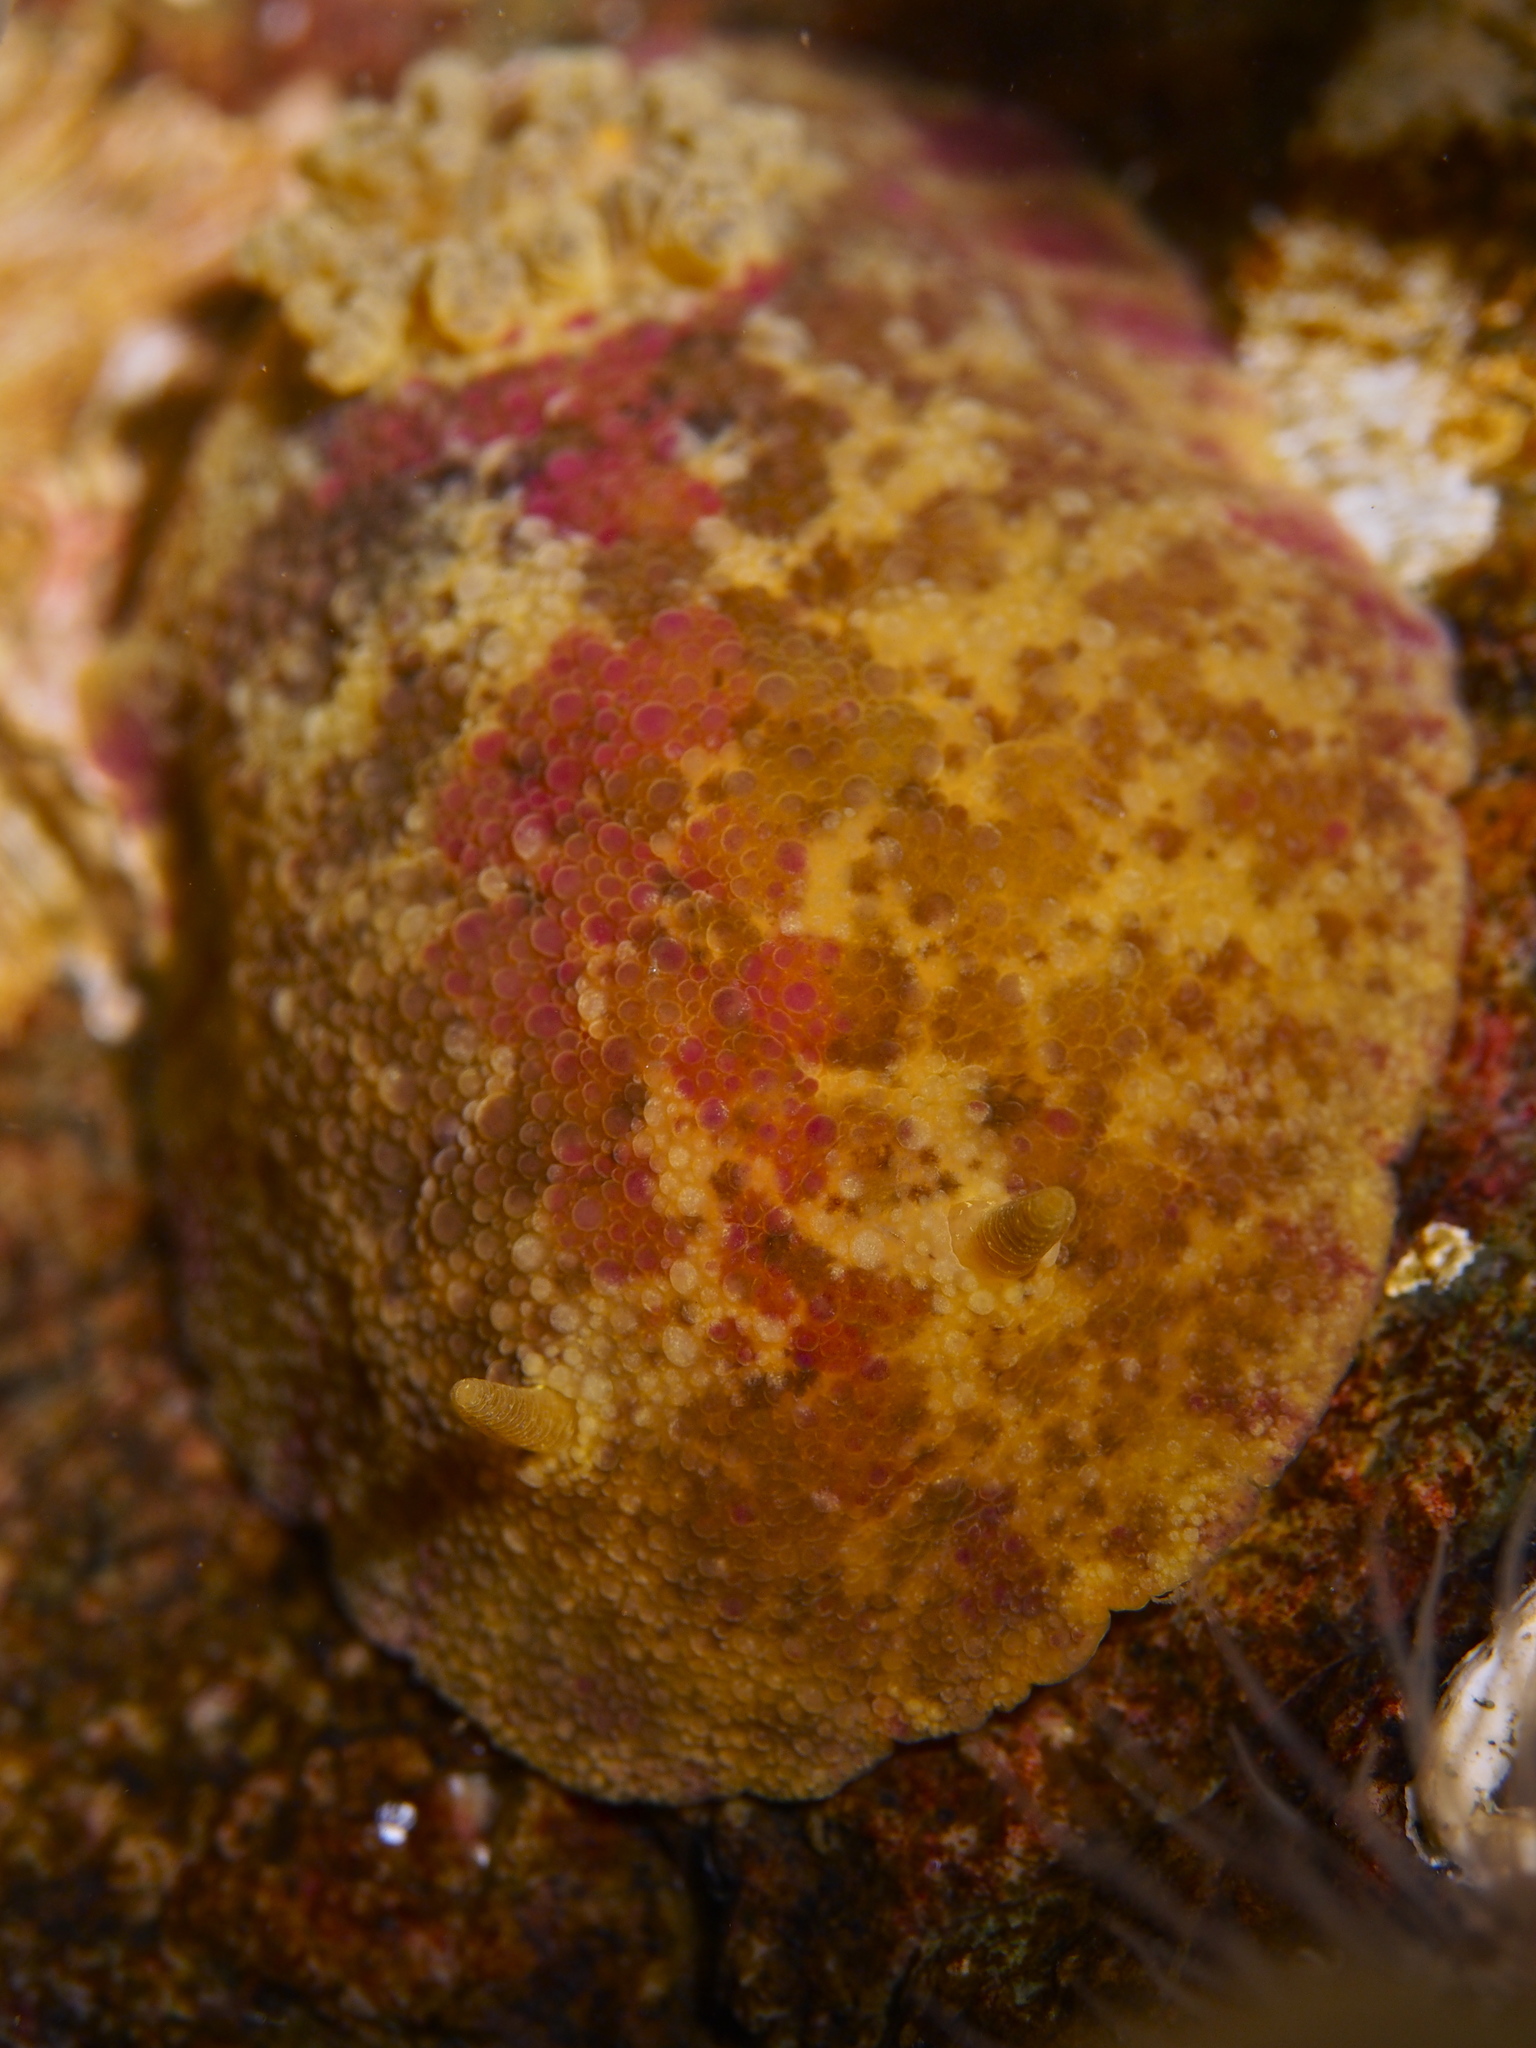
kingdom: Animalia
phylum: Mollusca
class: Gastropoda
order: Nudibranchia
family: Dorididae
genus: Doris
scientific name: Doris pseudoargus
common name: Sea lemon
